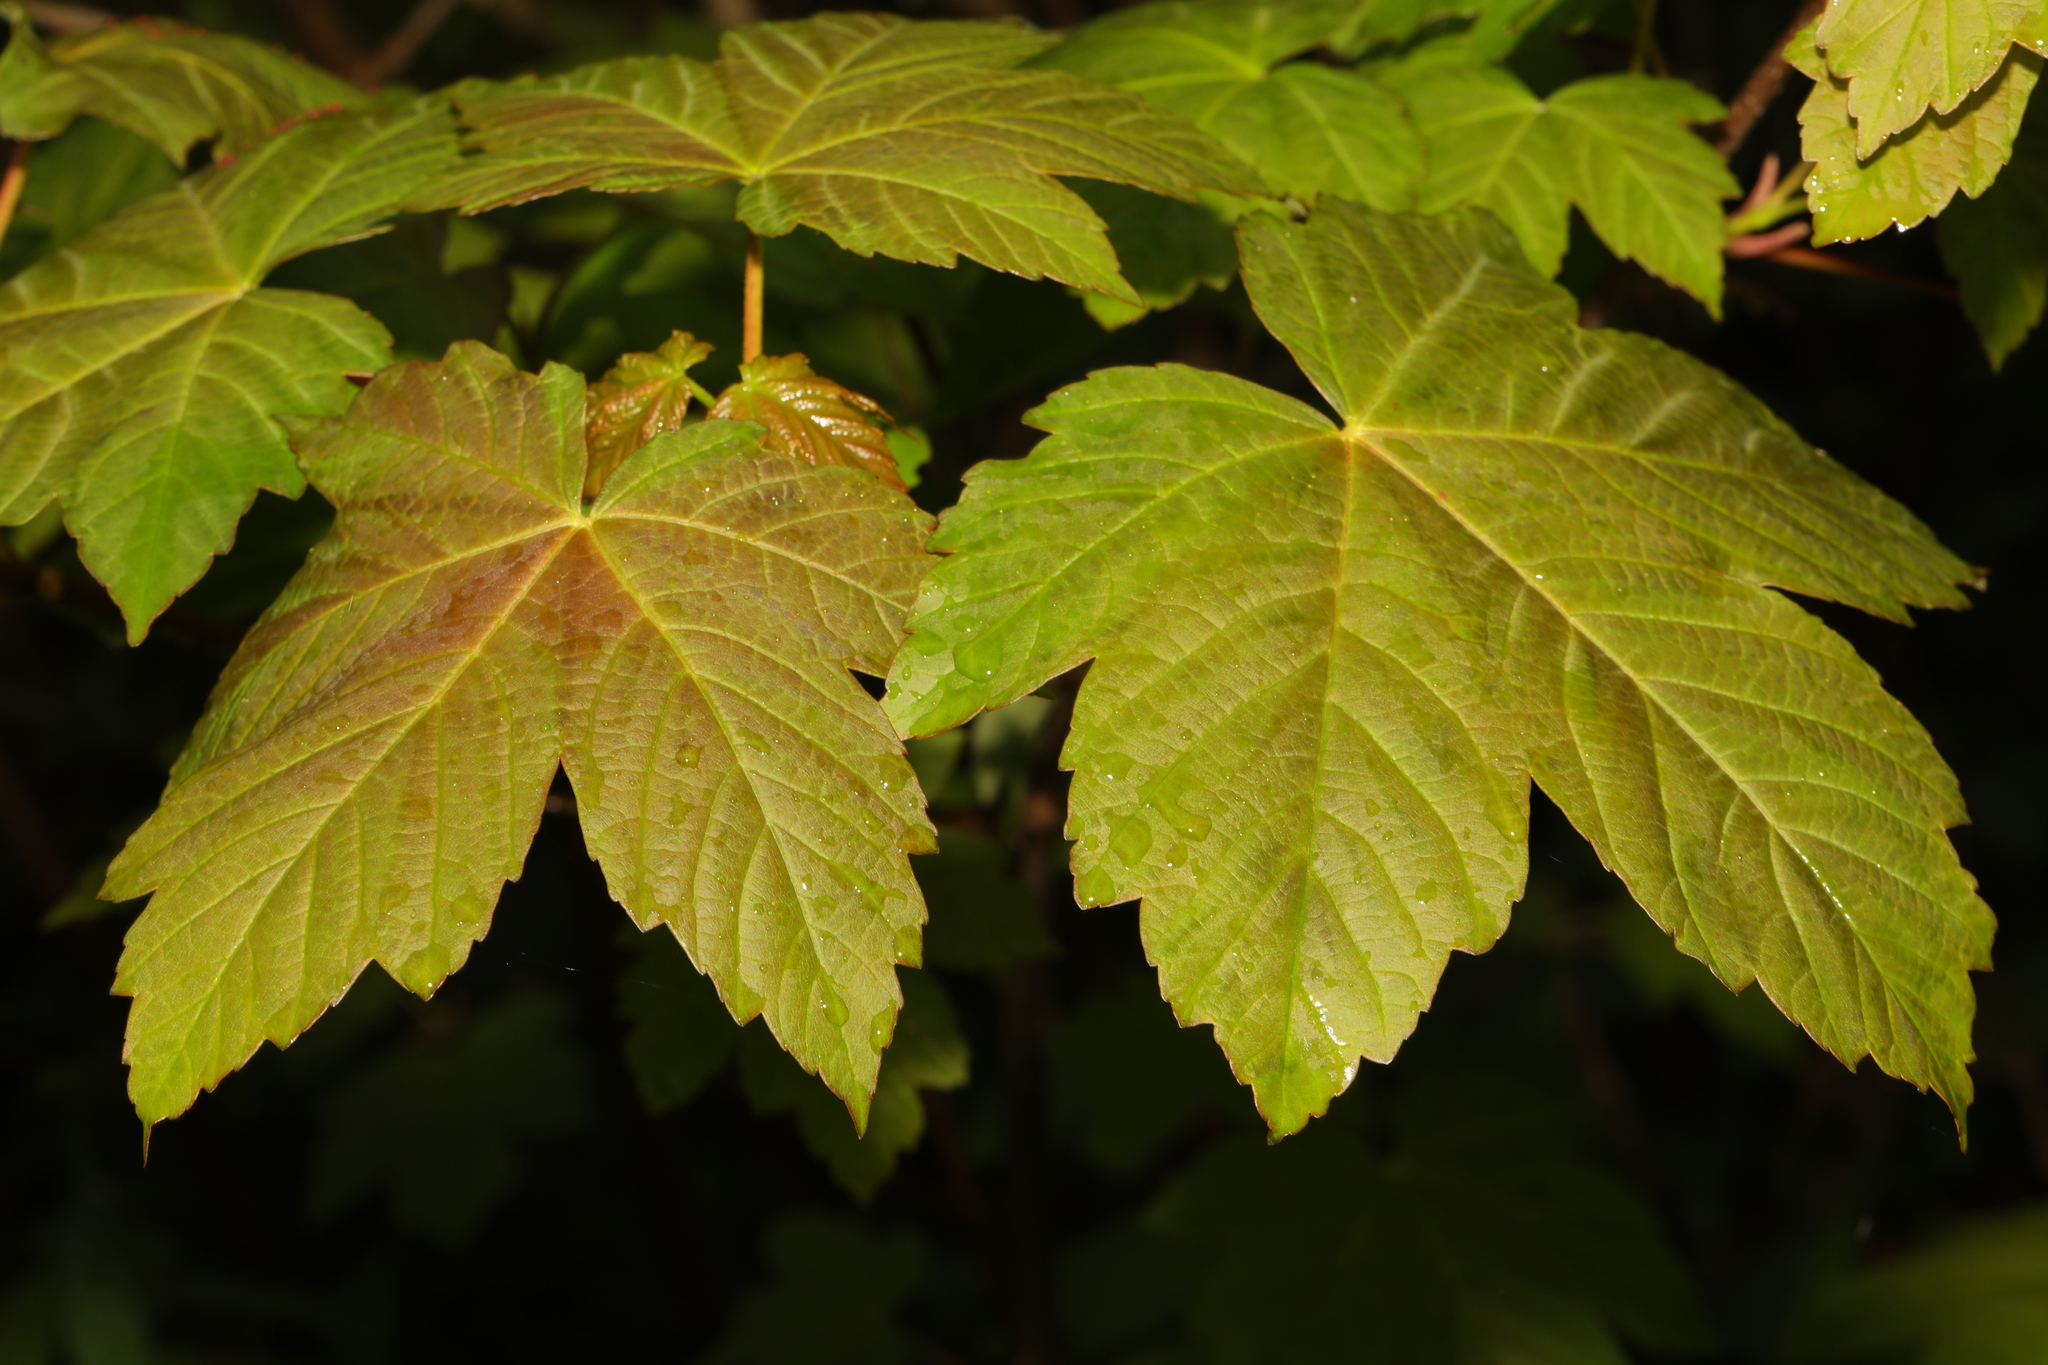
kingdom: Plantae
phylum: Tracheophyta
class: Magnoliopsida
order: Sapindales
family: Sapindaceae
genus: Acer
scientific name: Acer pseudoplatanus
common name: Sycamore
